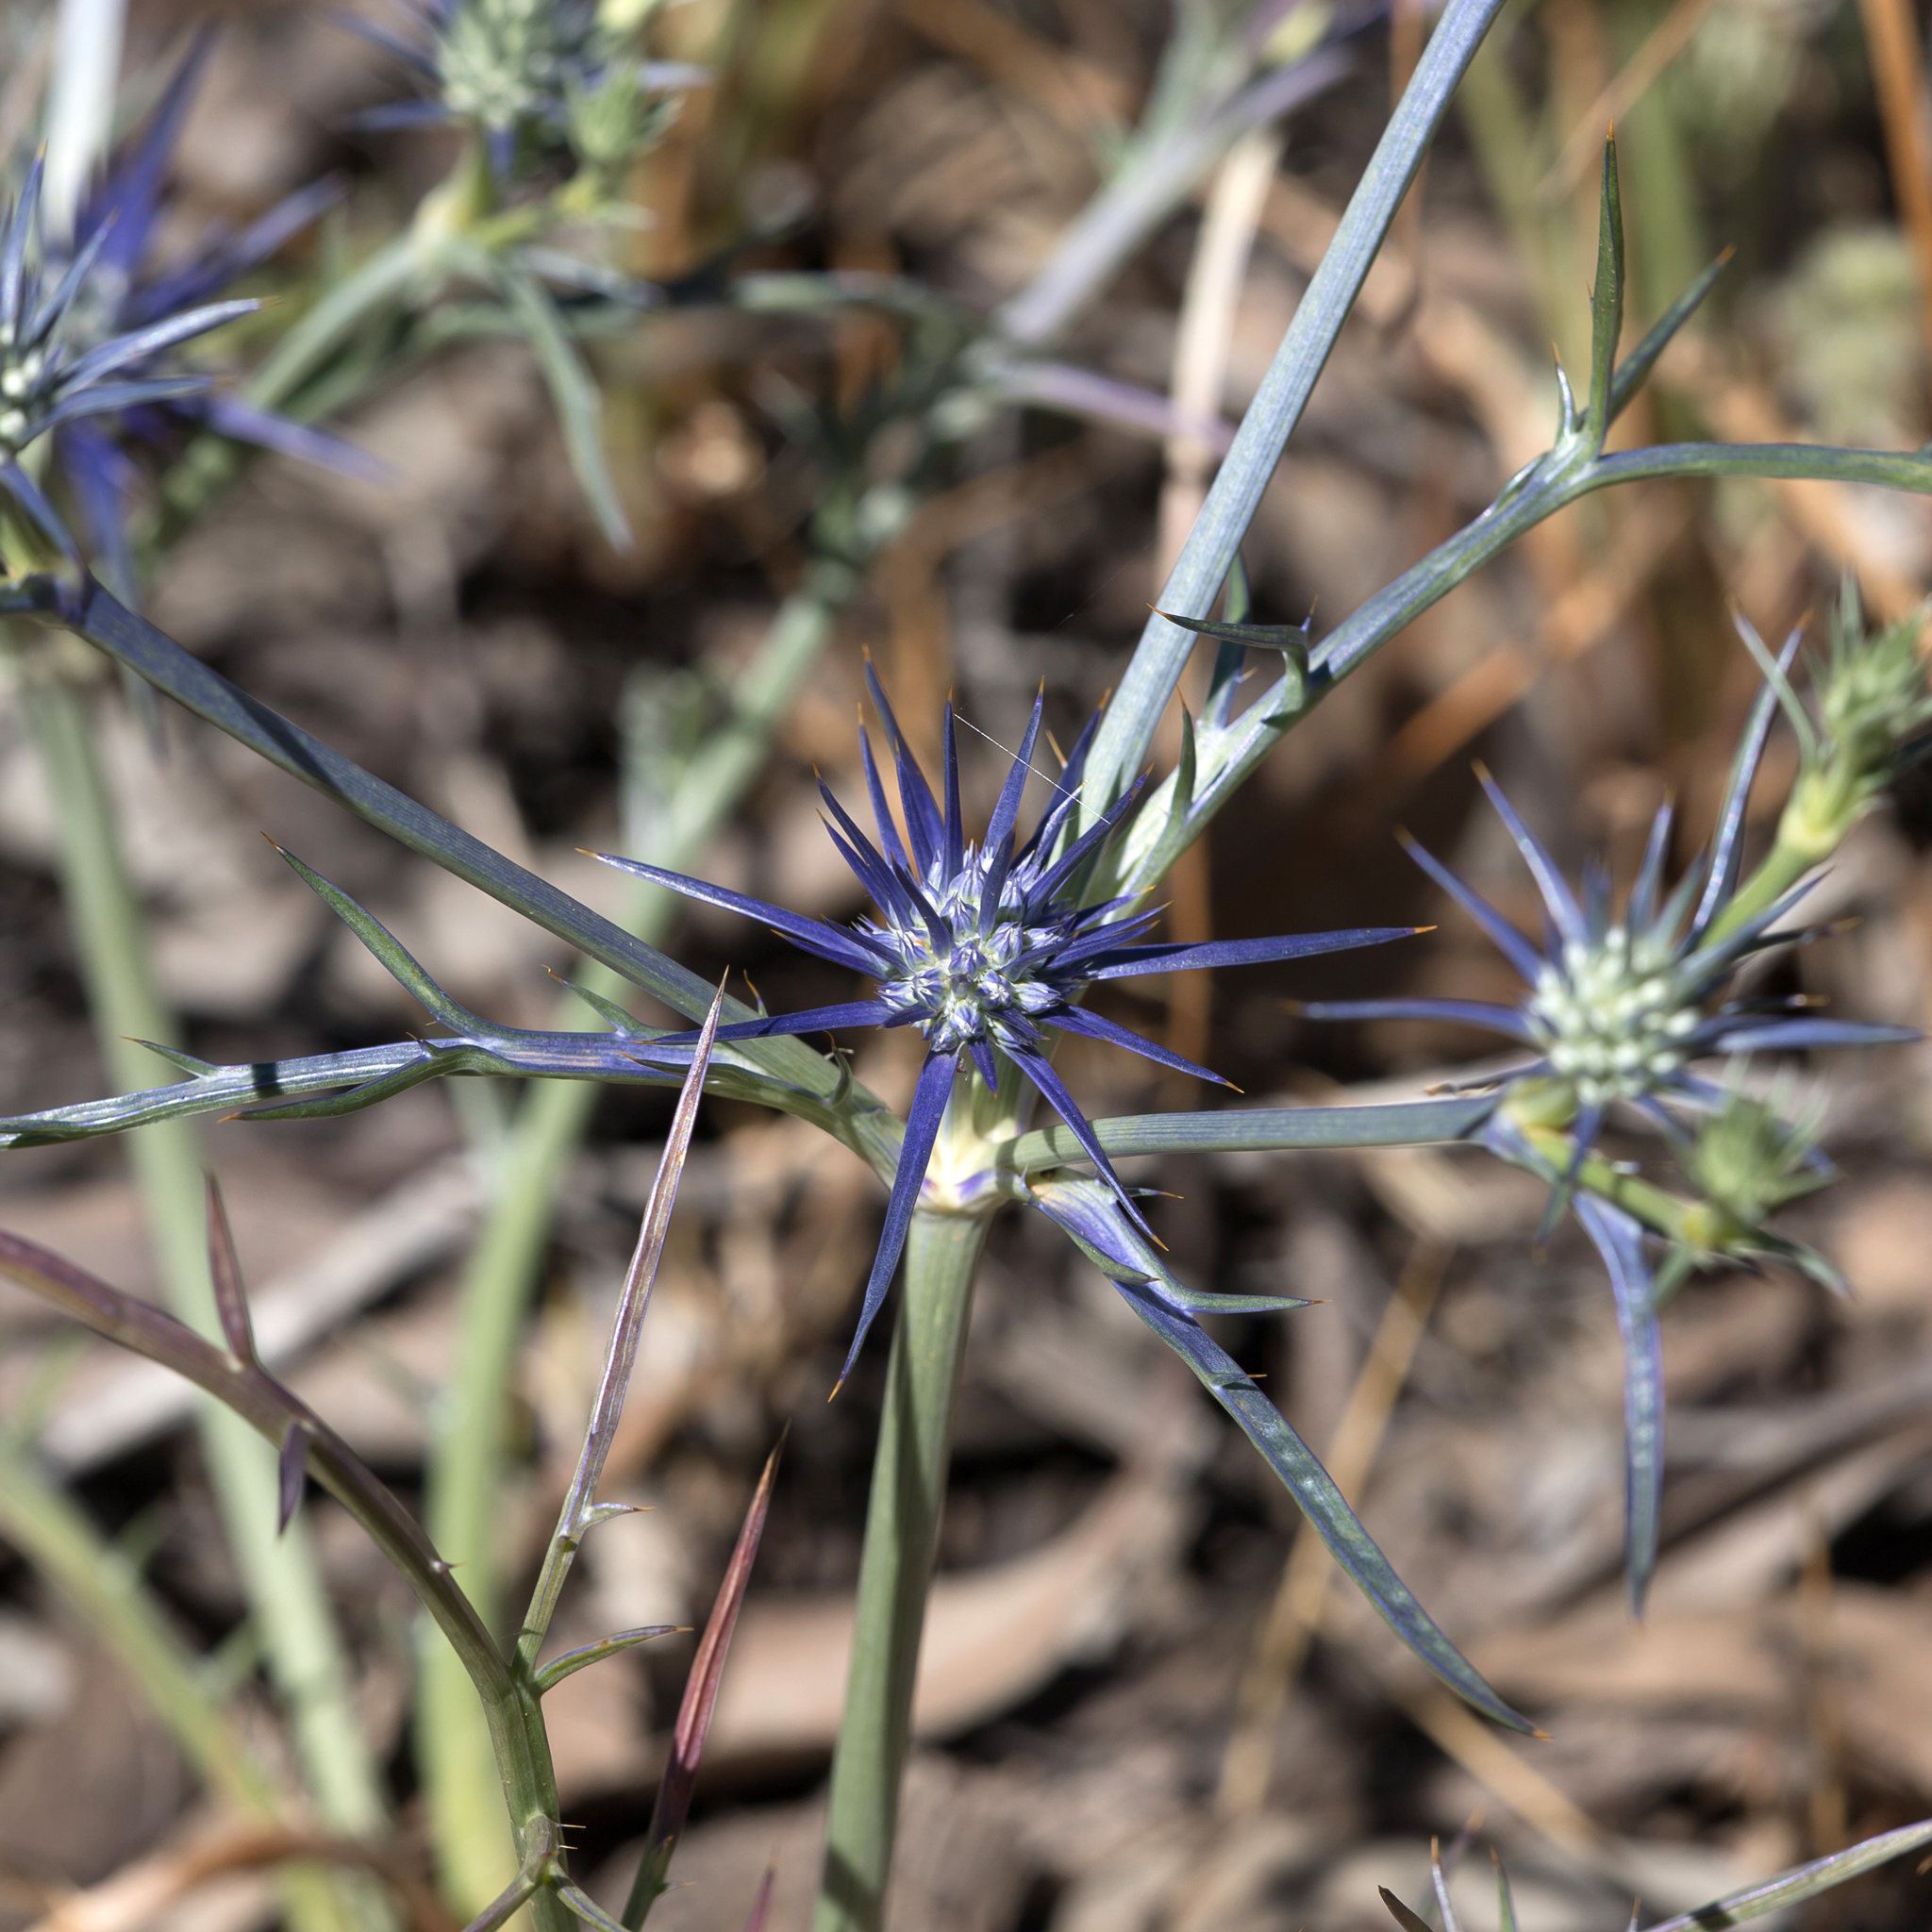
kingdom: Plantae
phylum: Tracheophyta
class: Magnoliopsida
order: Apiales
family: Apiaceae
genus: Eryngium
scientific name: Eryngium ovinum
